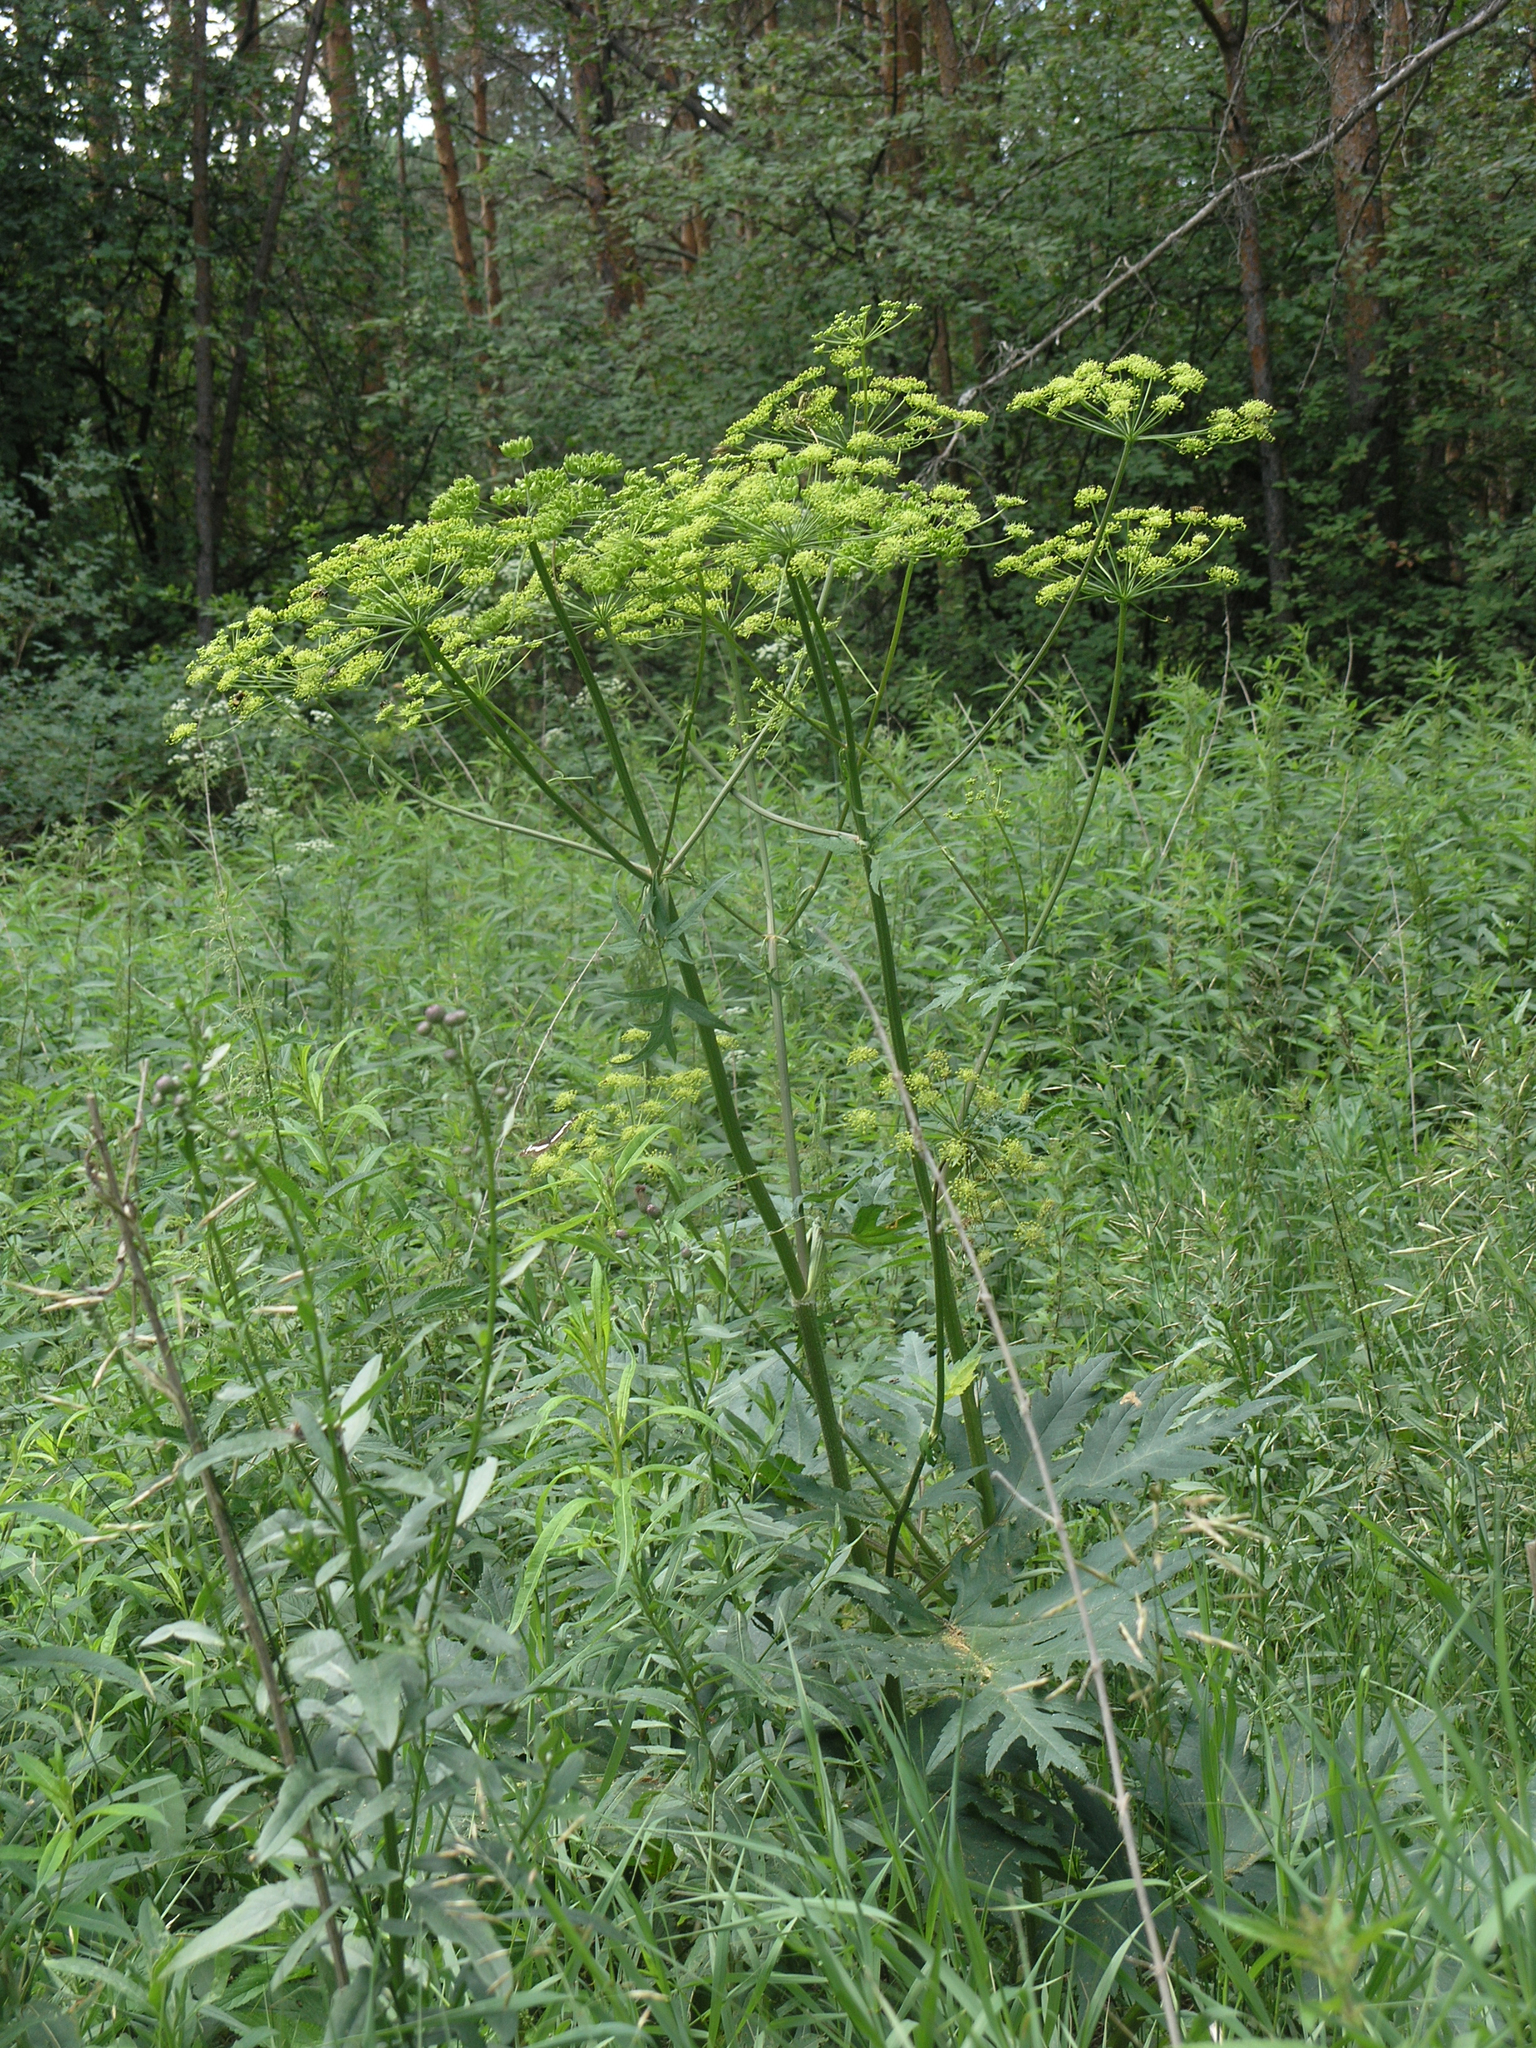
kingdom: Plantae
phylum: Tracheophyta
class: Magnoliopsida
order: Apiales
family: Apiaceae
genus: Heracleum
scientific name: Heracleum sphondylium
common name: Hogweed
